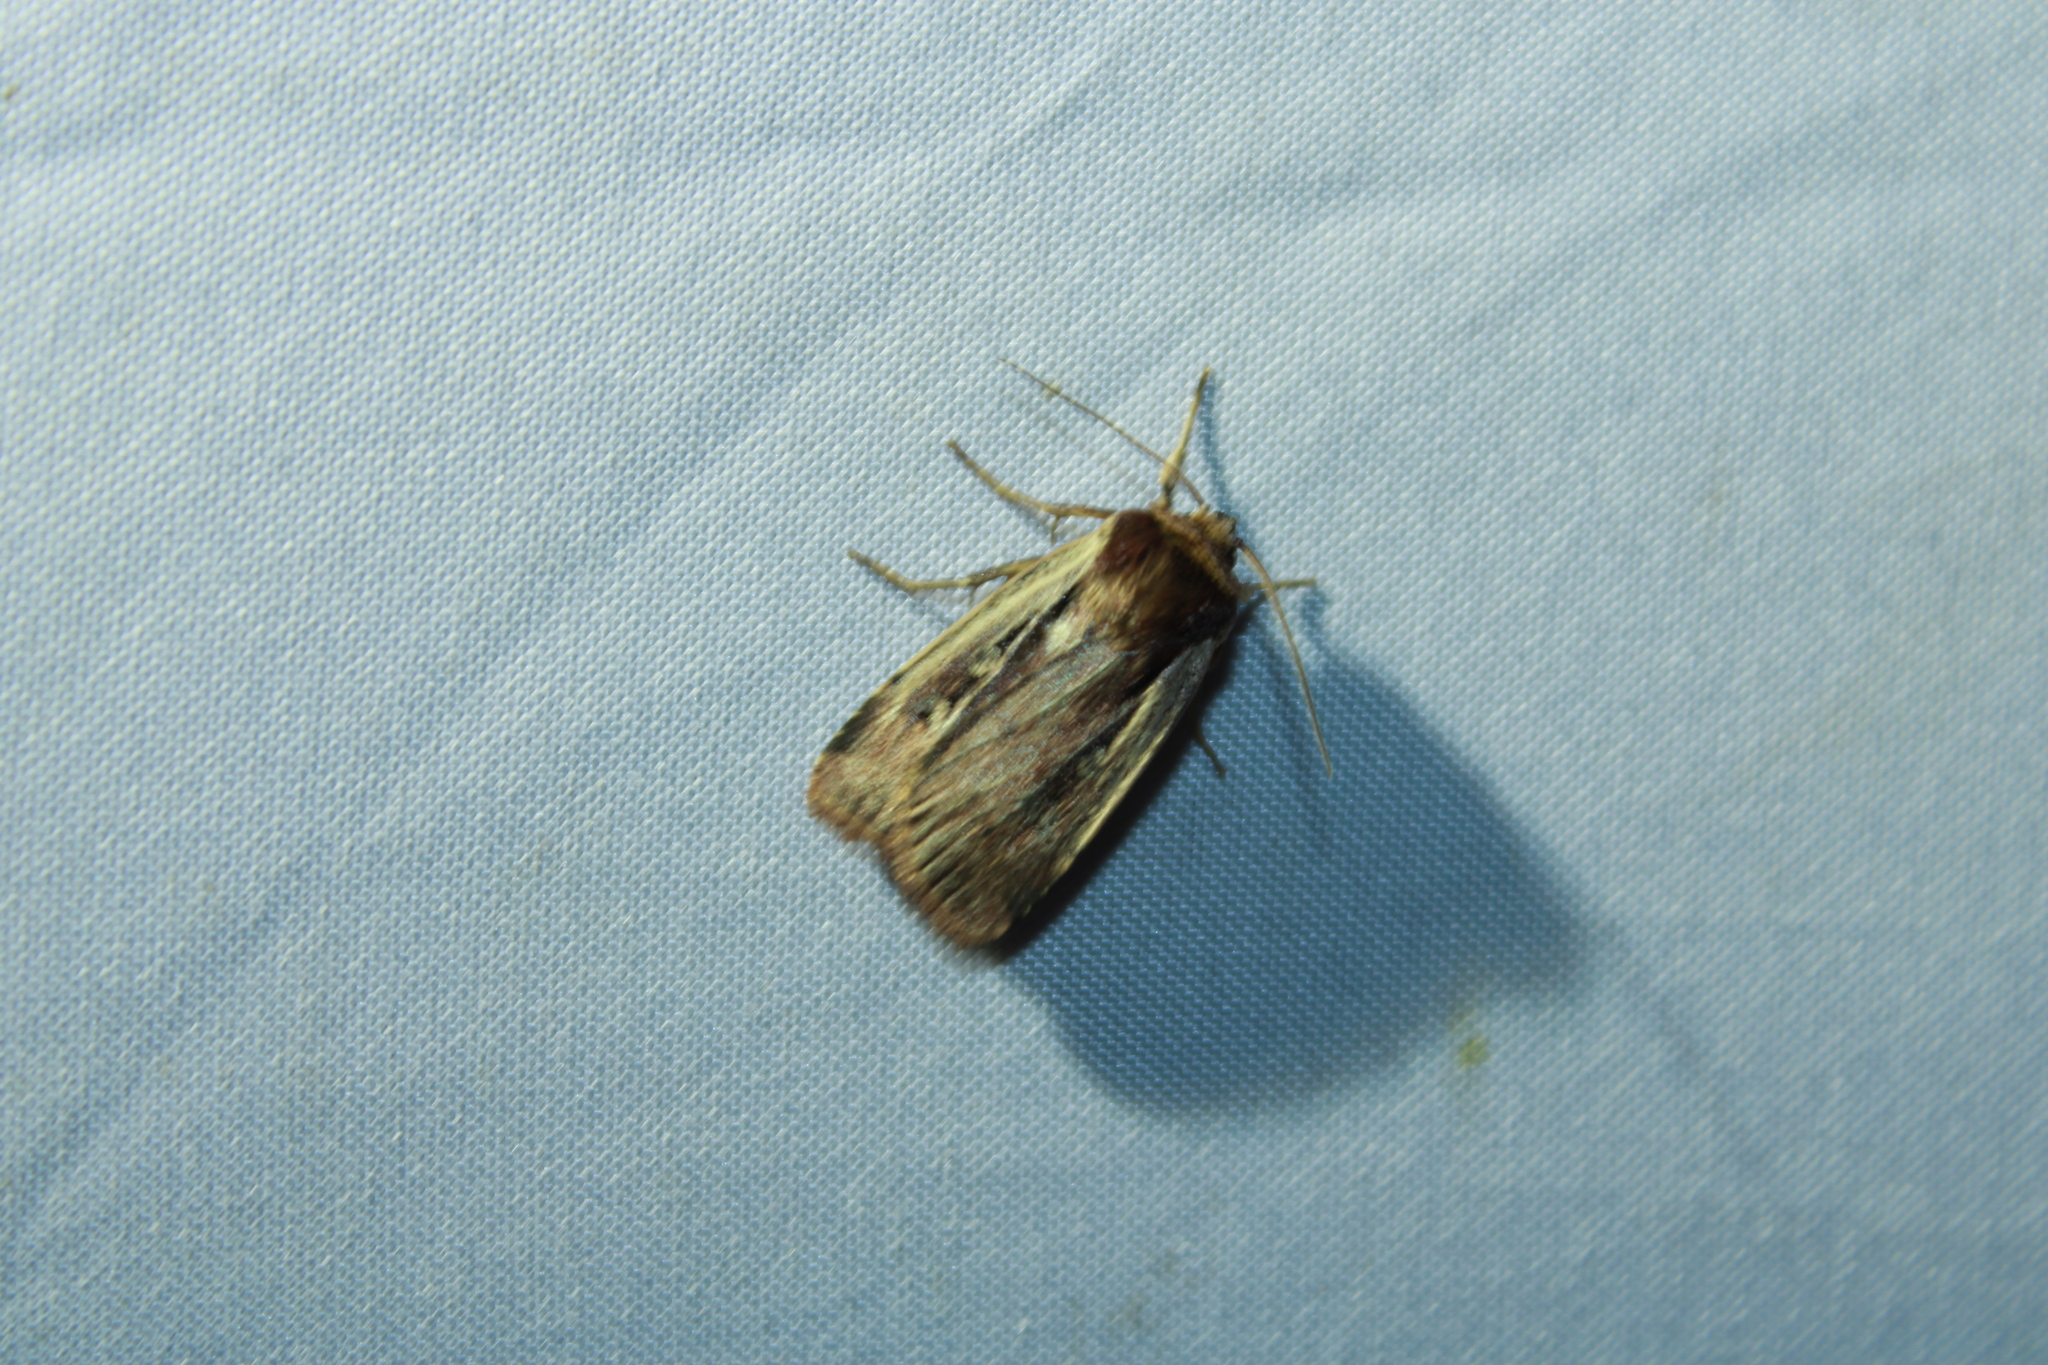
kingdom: Animalia
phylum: Arthropoda
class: Insecta
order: Lepidoptera
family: Noctuidae
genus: Ochropleura
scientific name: Ochropleura implecta
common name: Flame-shouldered dart
